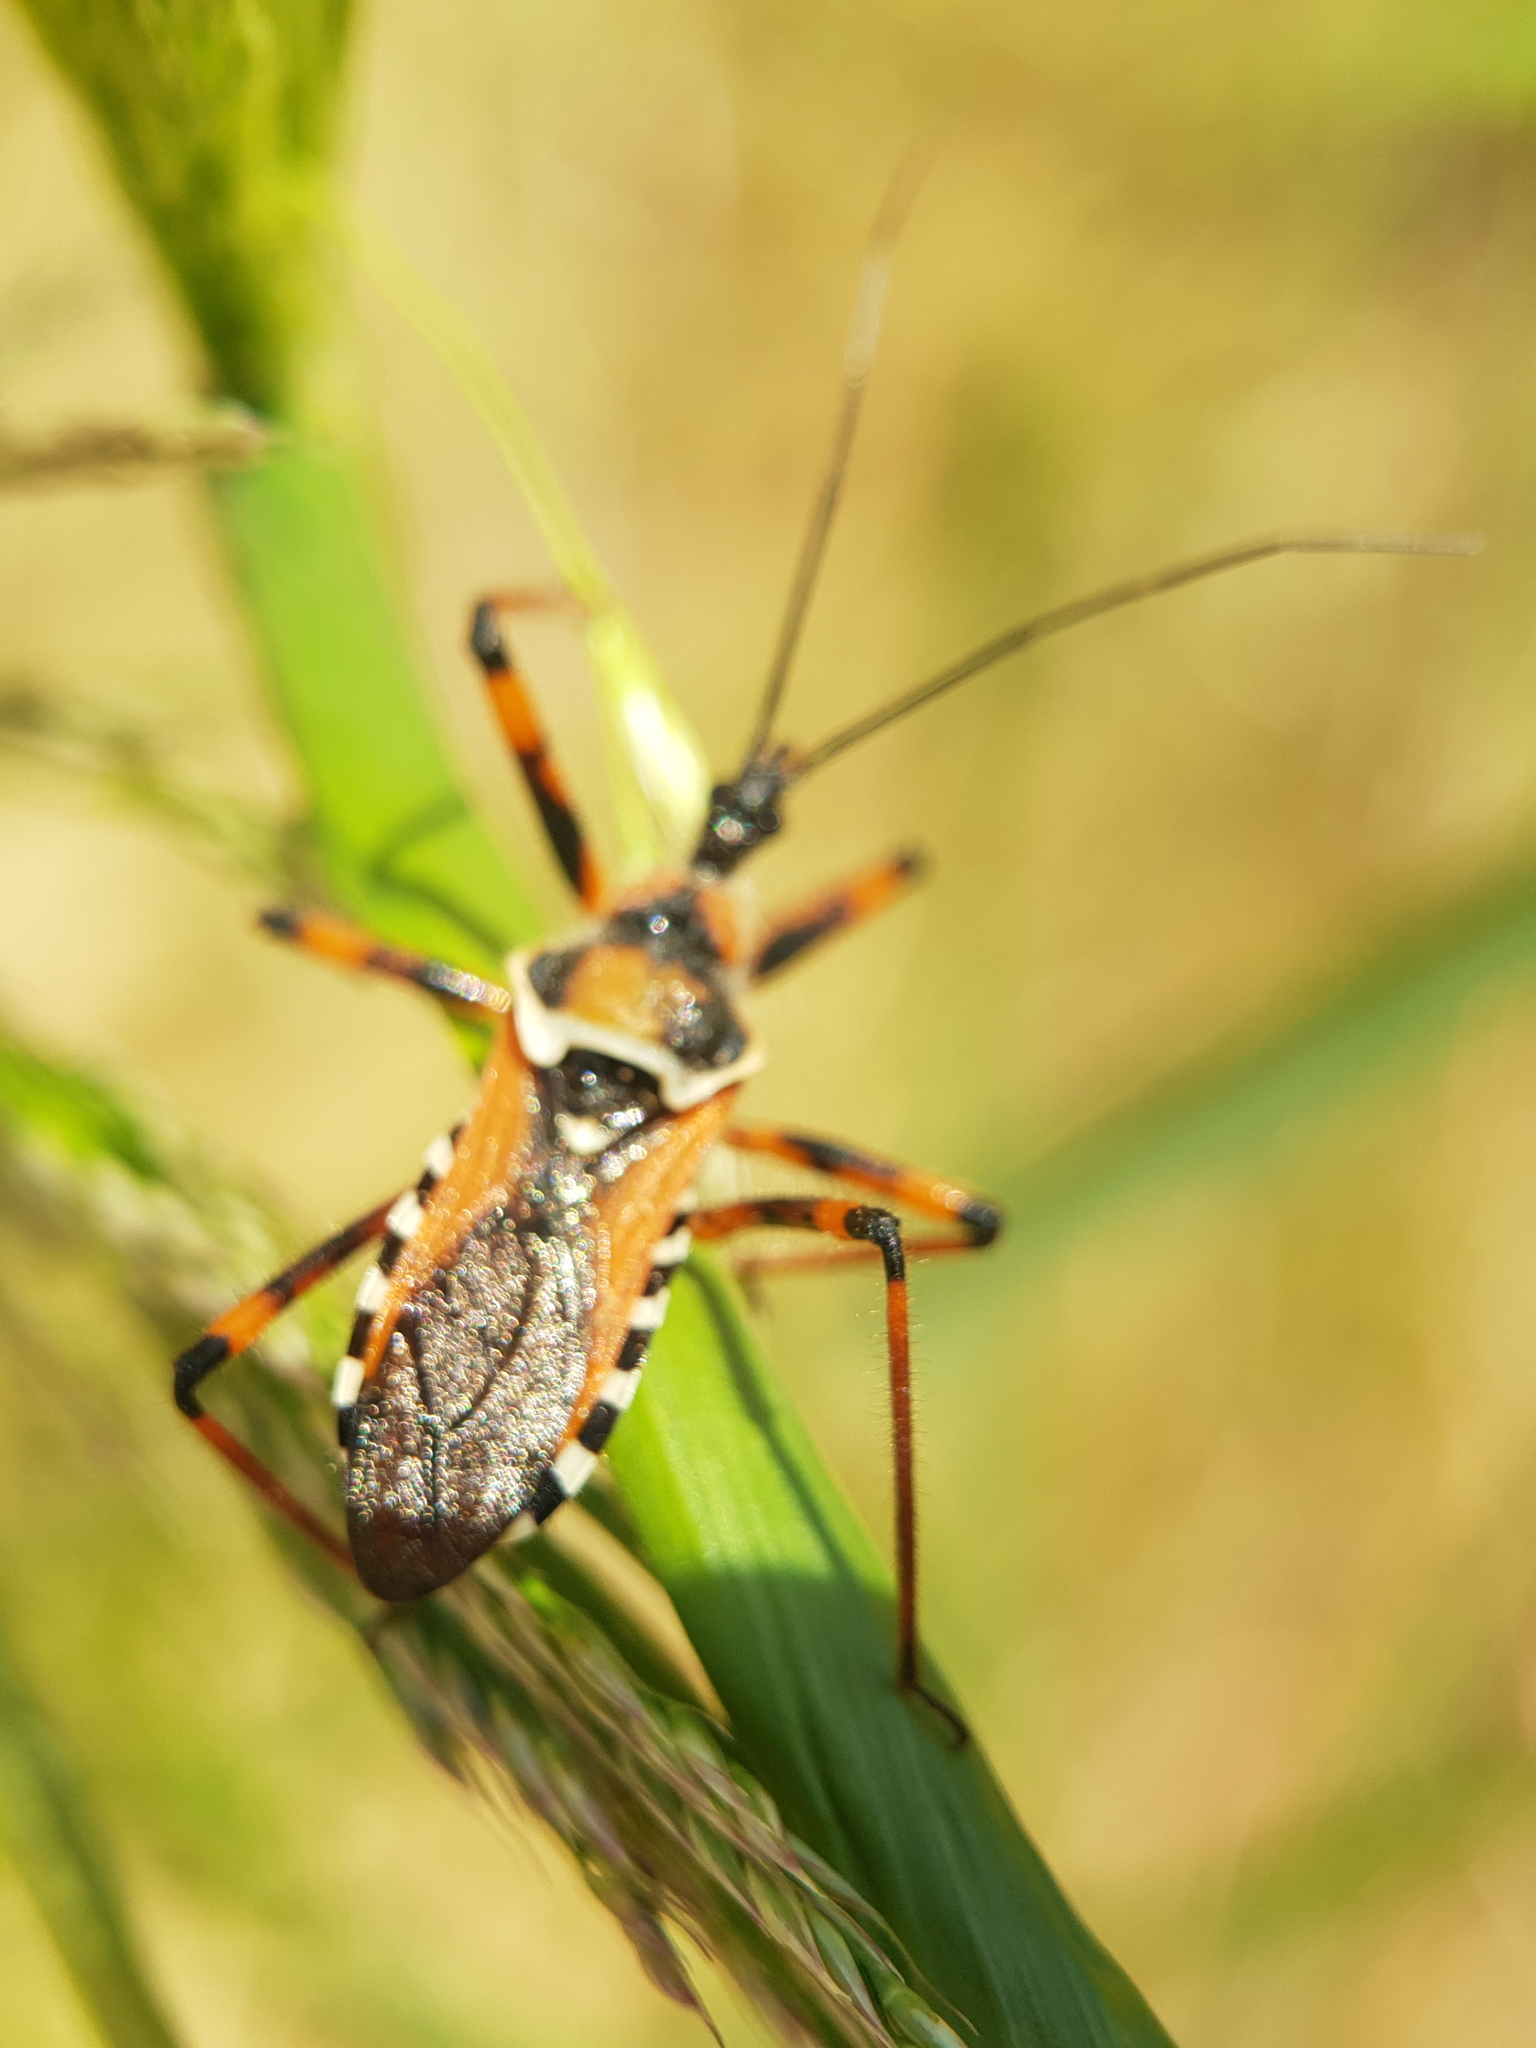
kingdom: Animalia
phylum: Arthropoda
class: Insecta
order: Hemiptera
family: Reduviidae
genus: Rhynocoris
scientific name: Rhynocoris punctiventris
